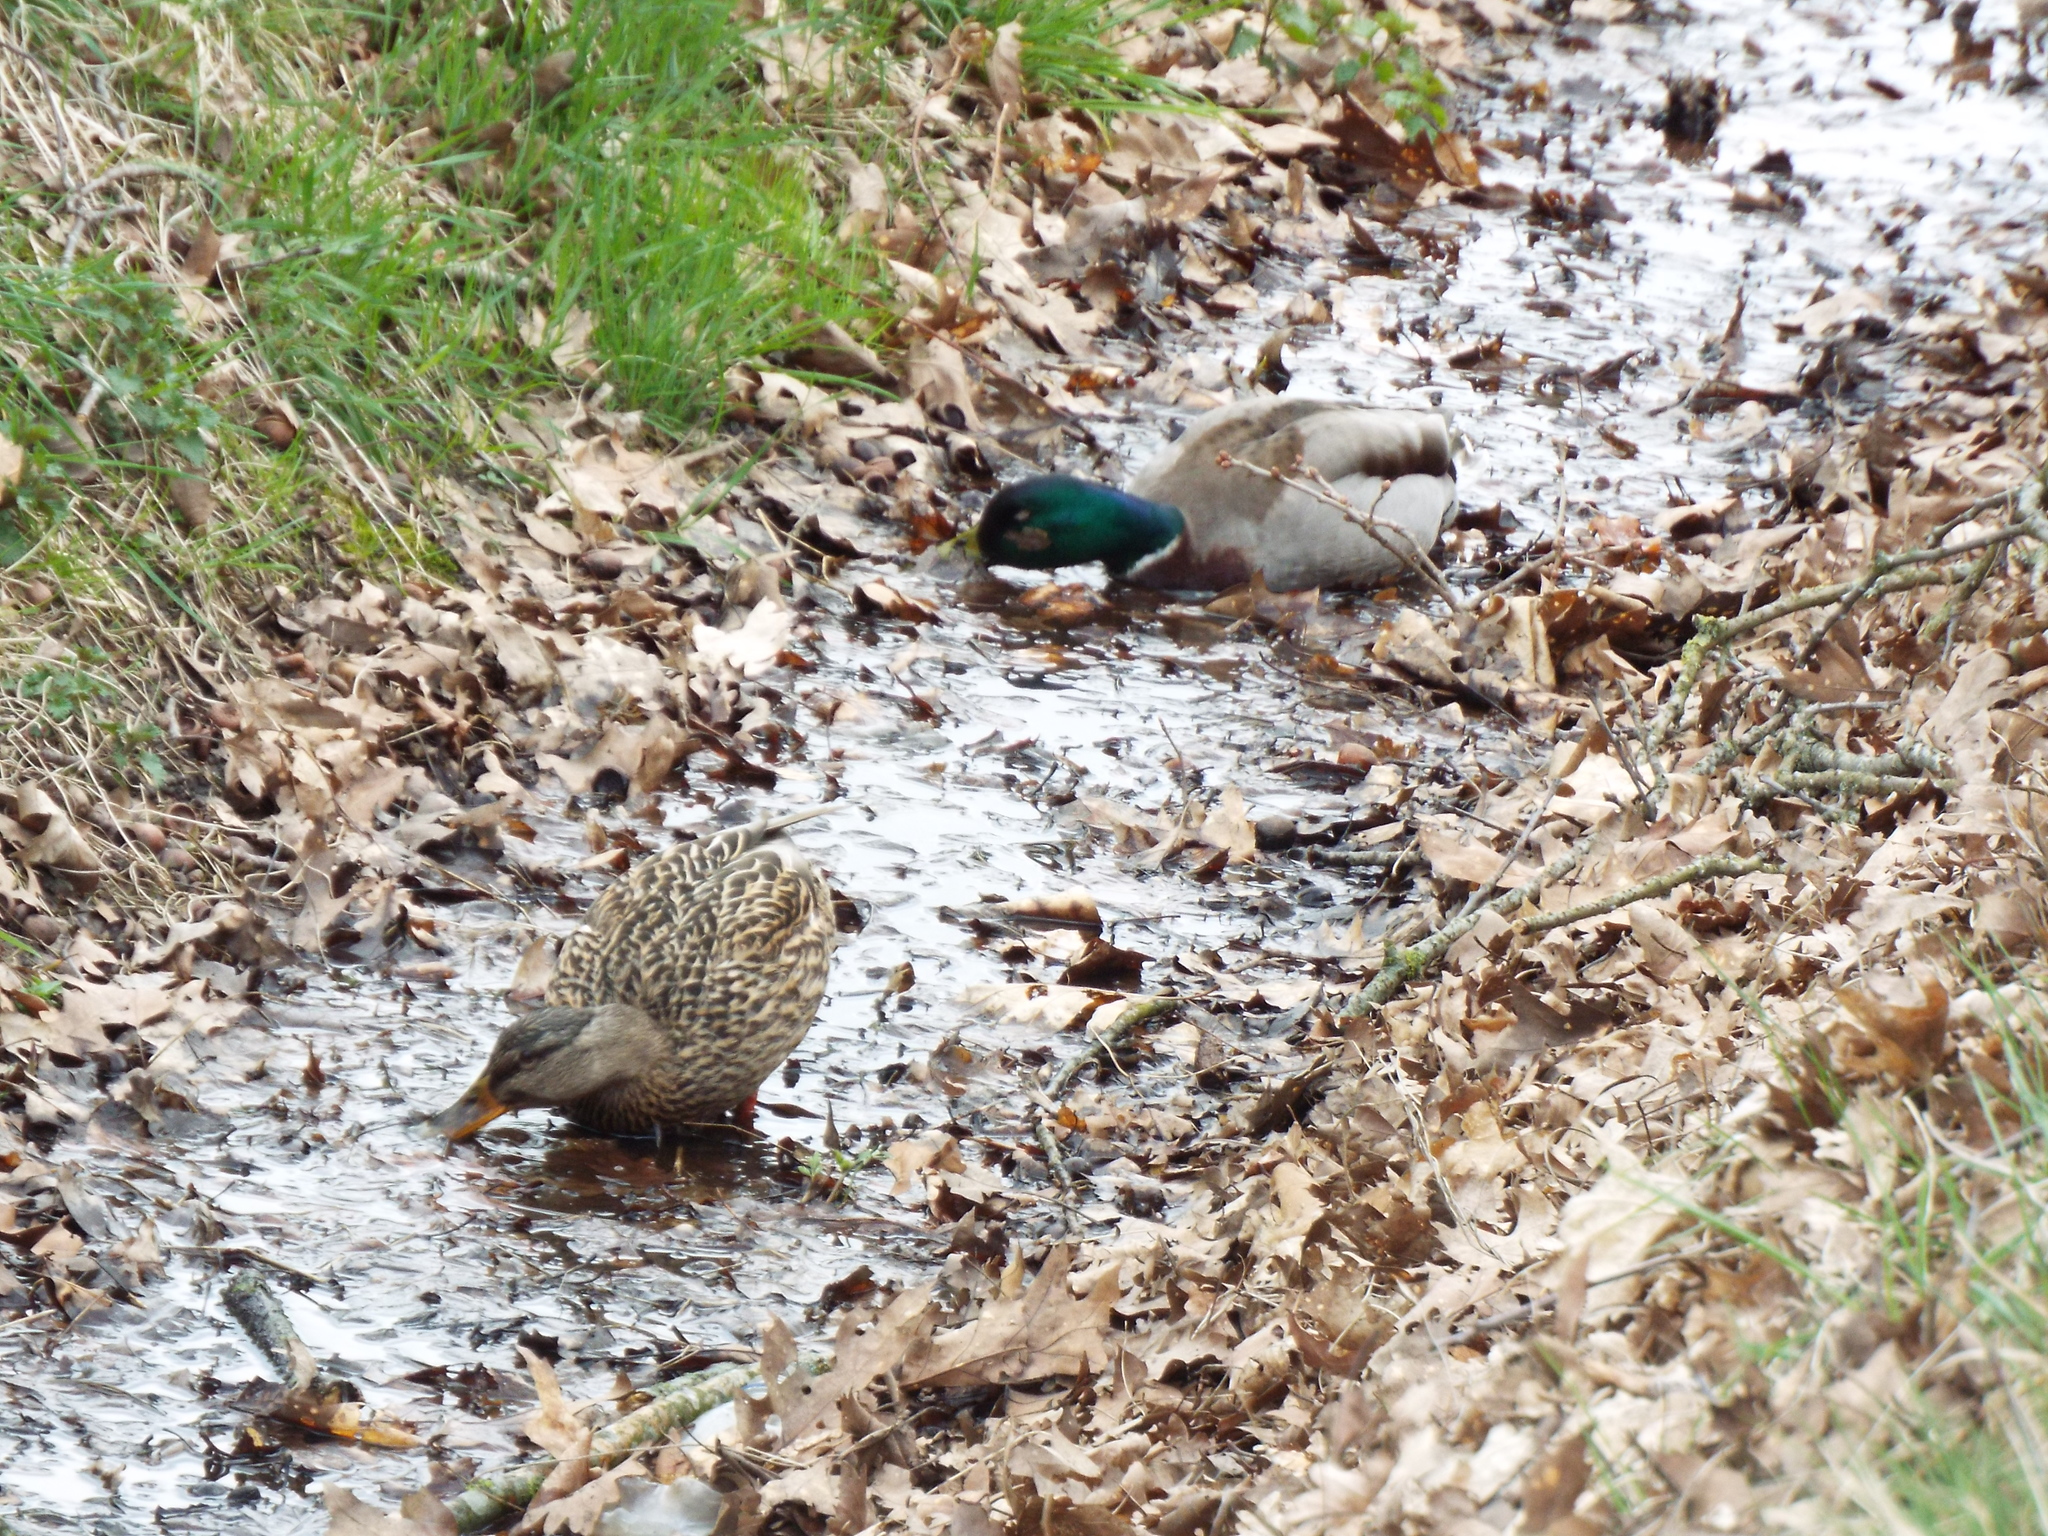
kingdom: Animalia
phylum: Chordata
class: Aves
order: Anseriformes
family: Anatidae
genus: Anas
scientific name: Anas platyrhynchos
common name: Mallard
